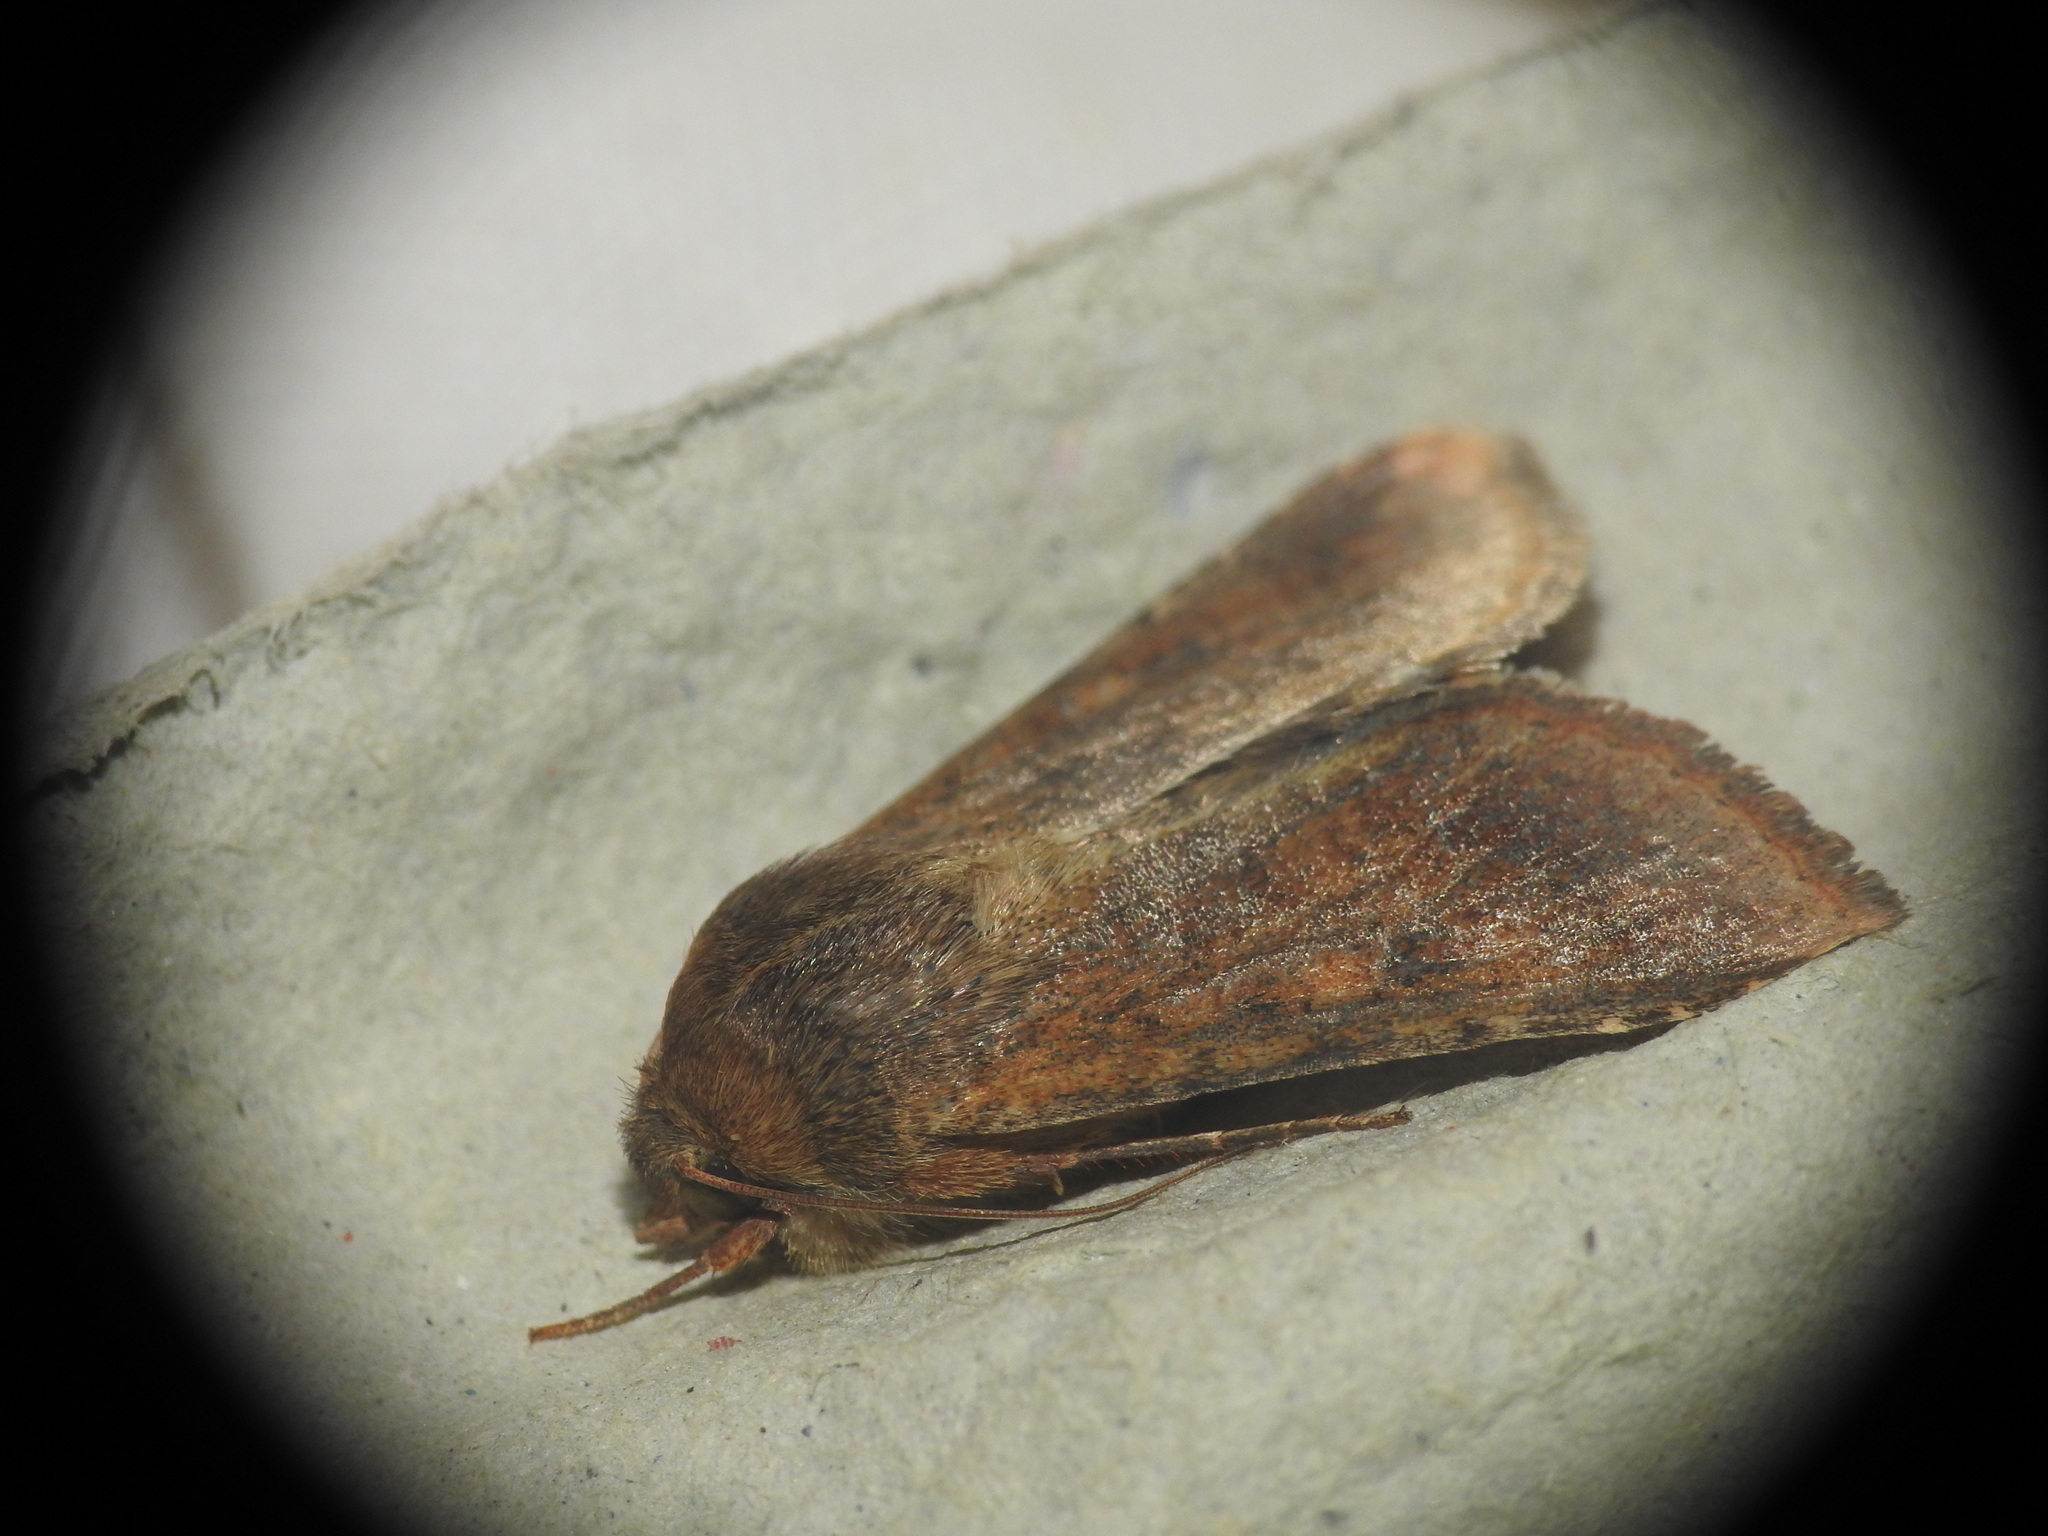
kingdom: Animalia
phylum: Arthropoda
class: Insecta
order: Lepidoptera
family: Noctuidae
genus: Helicoverpa
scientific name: Helicoverpa armigera
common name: Cotton bollworm
